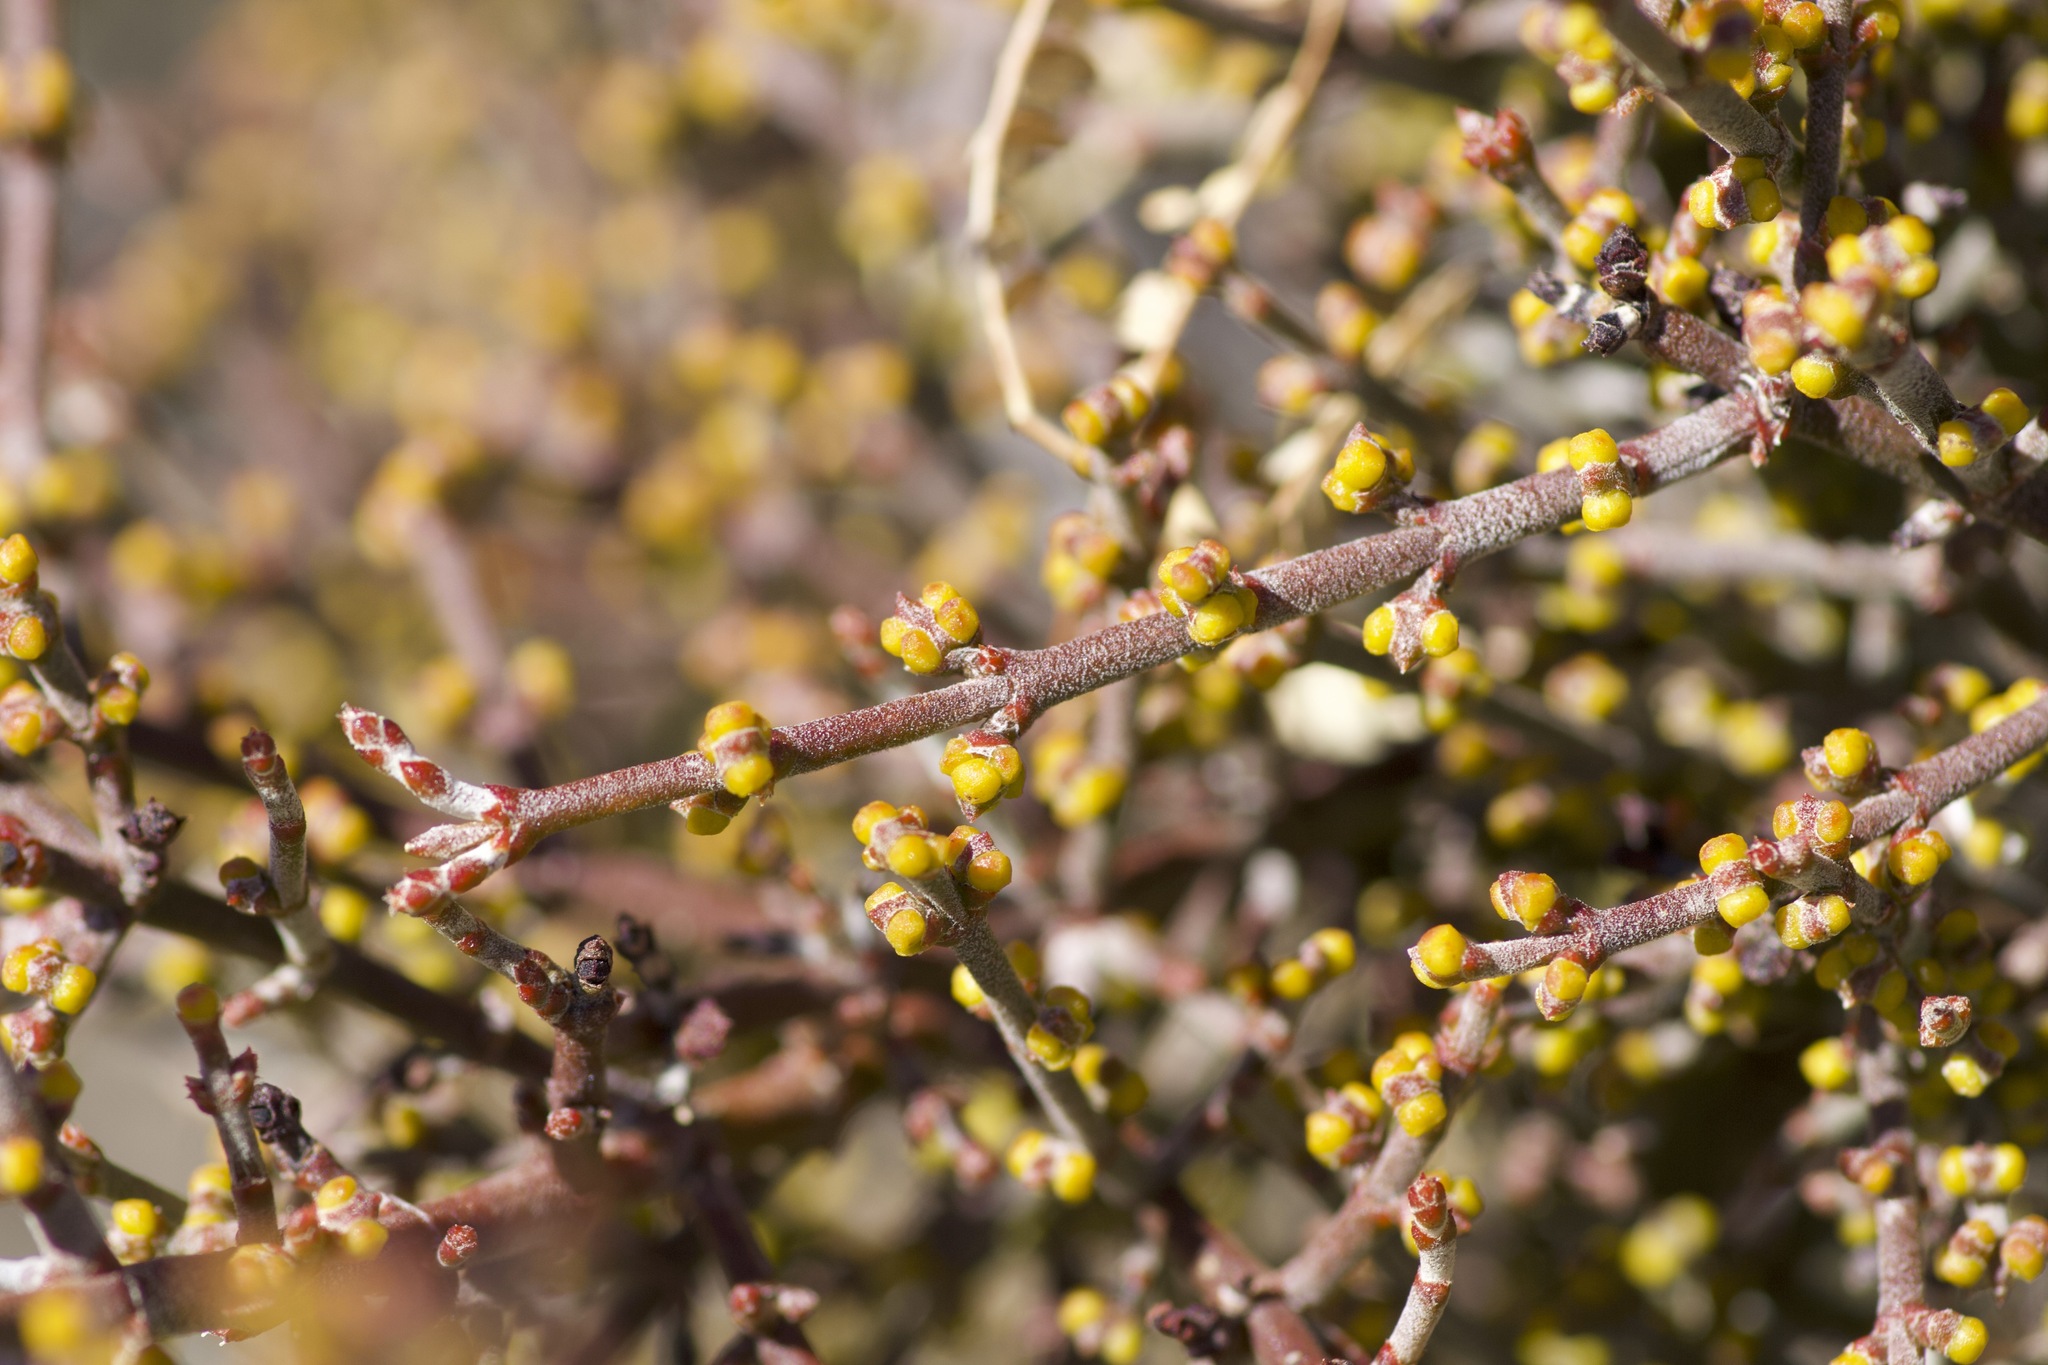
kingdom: Plantae
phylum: Tracheophyta
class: Magnoliopsida
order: Santalales
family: Viscaceae
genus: Phoradendron
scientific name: Phoradendron californicum
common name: Acacia mistletoe
